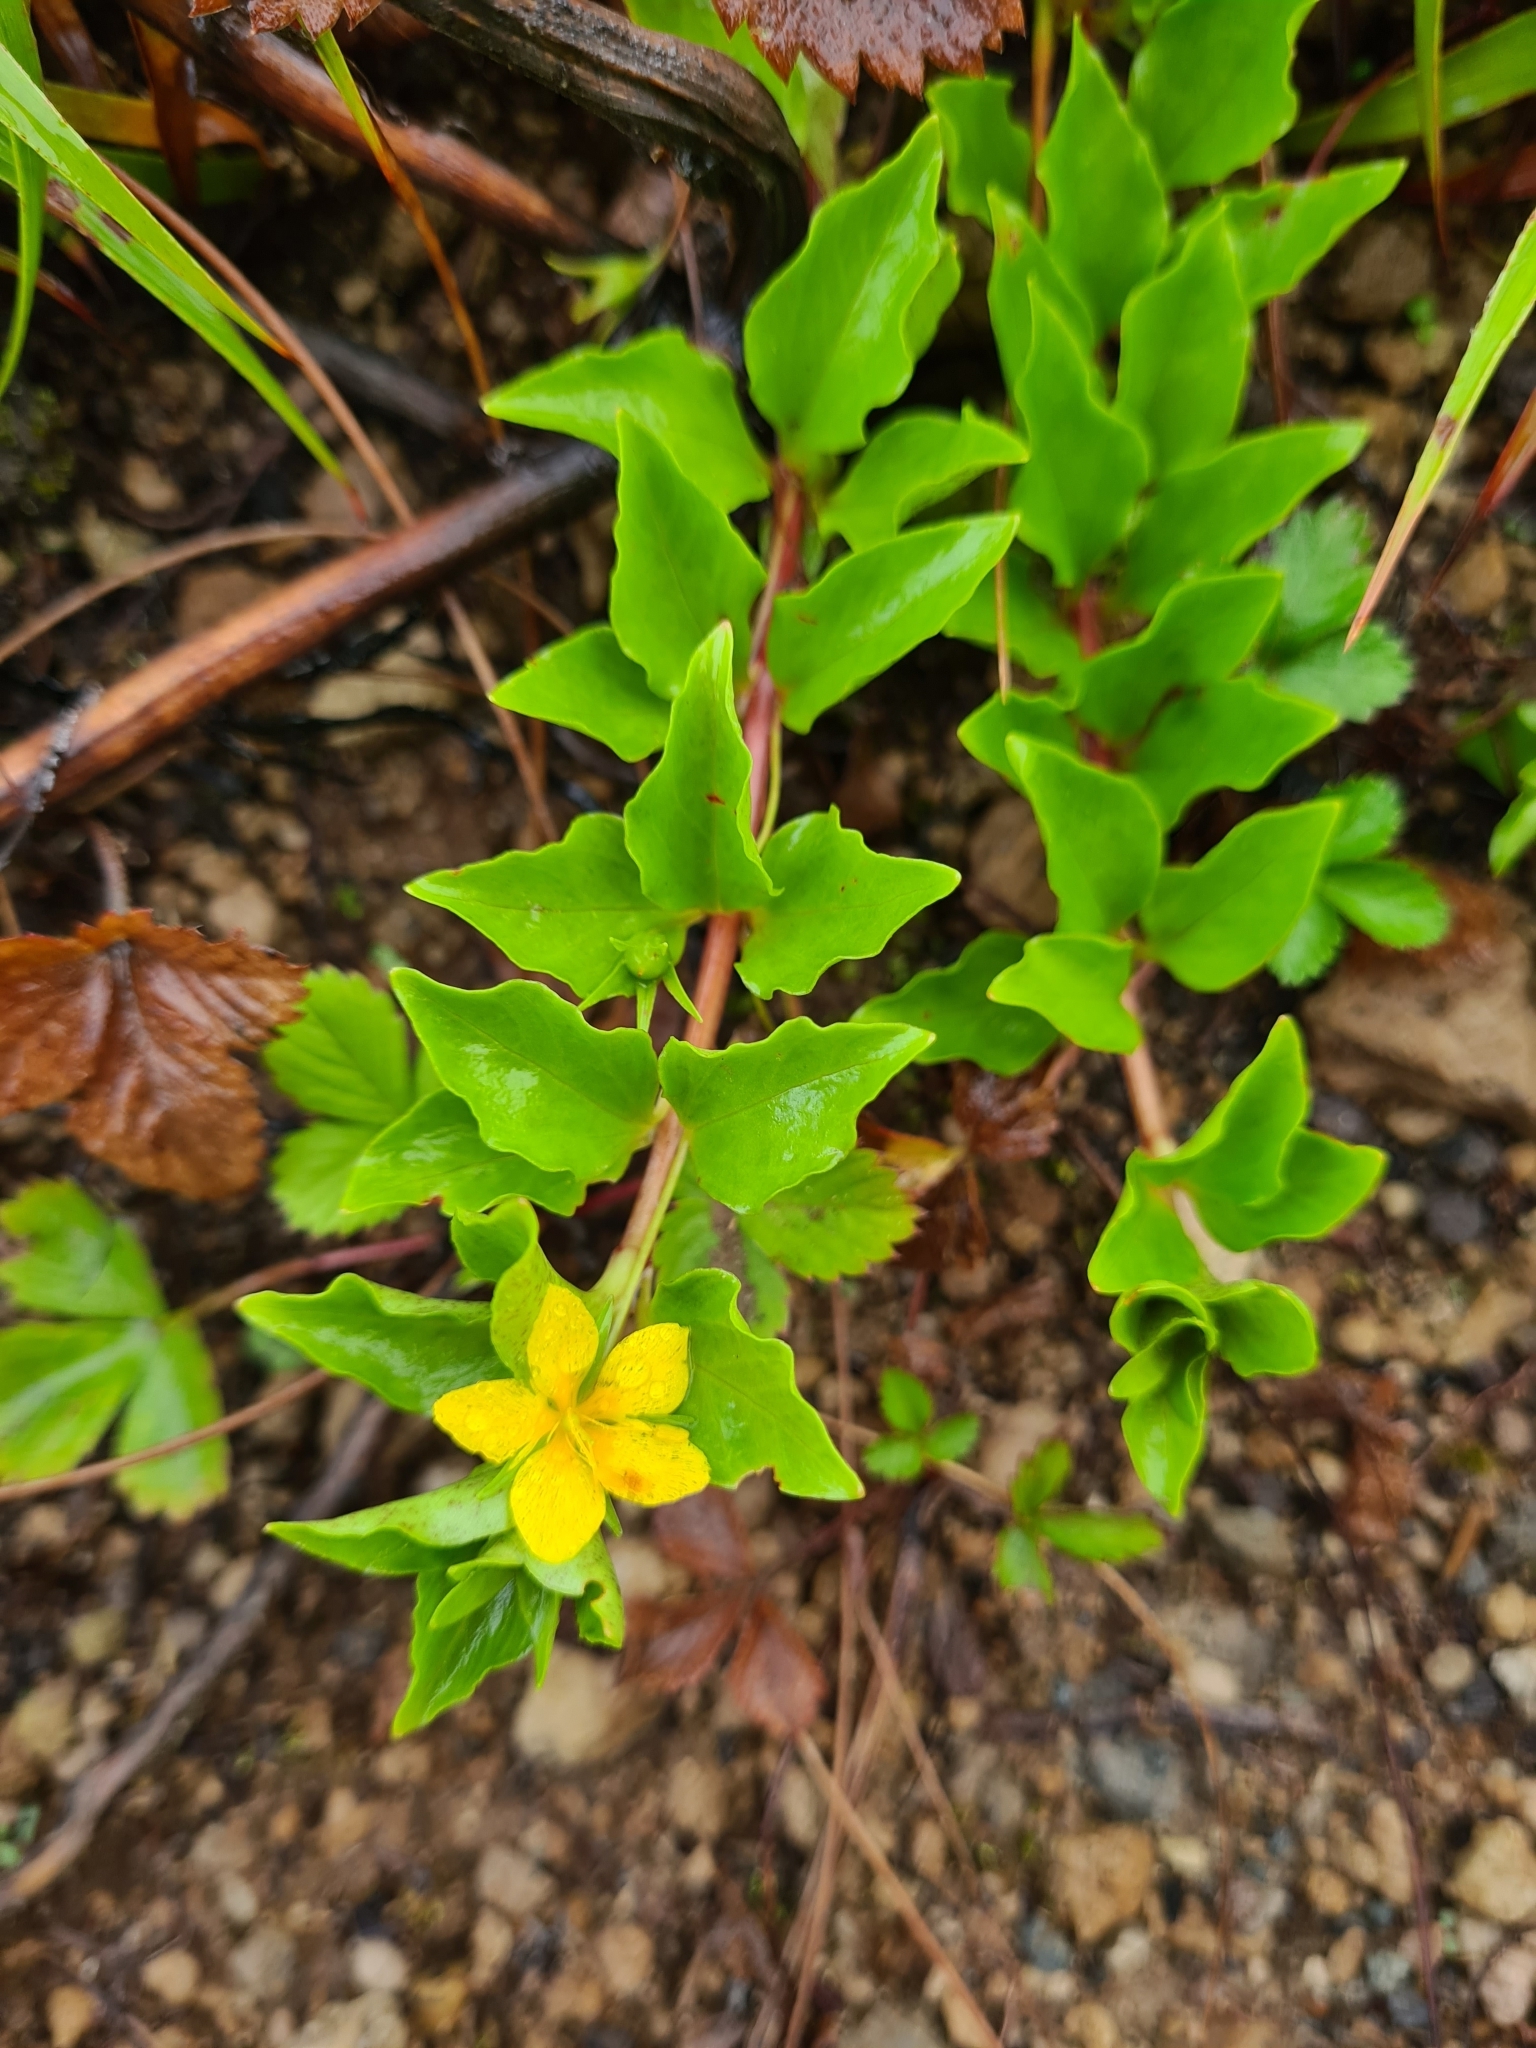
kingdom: Plantae
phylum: Tracheophyta
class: Magnoliopsida
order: Ericales
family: Primulaceae
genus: Lysimachia
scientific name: Lysimachia azorica
